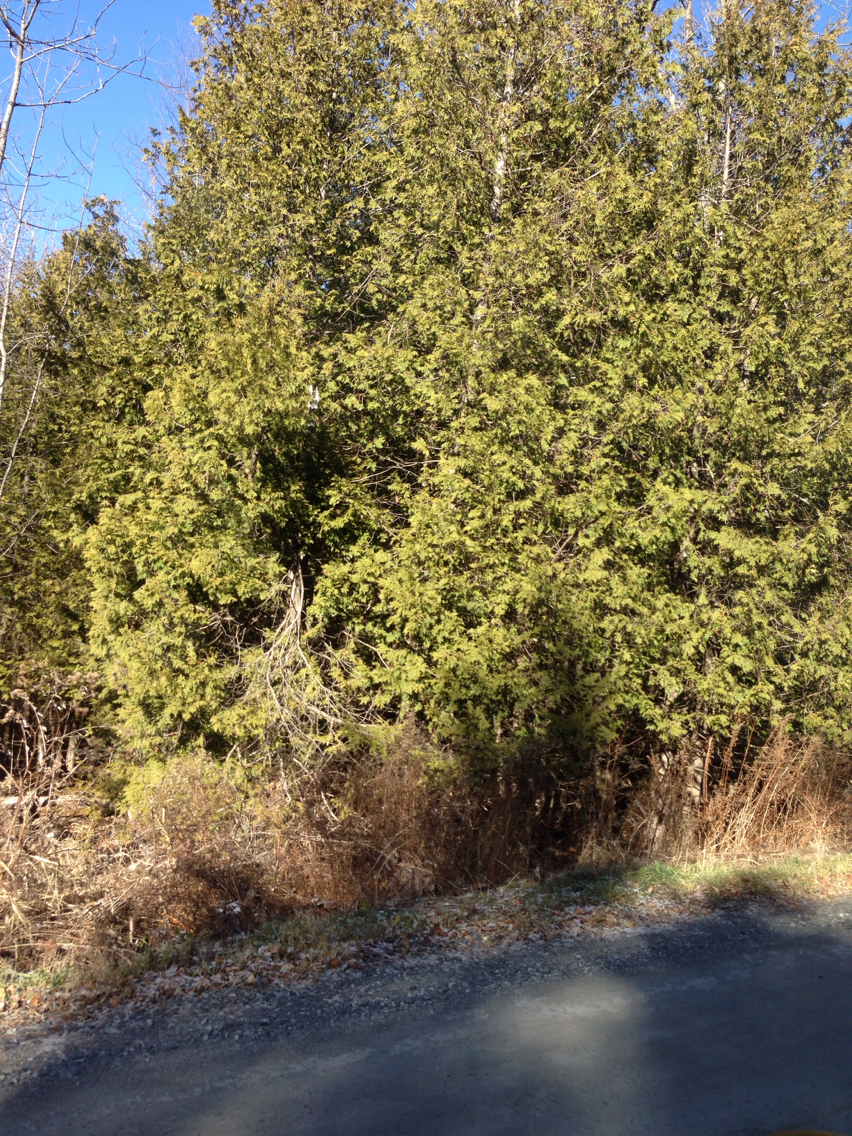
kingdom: Plantae
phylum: Tracheophyta
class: Pinopsida
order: Pinales
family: Cupressaceae
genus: Thuja
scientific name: Thuja occidentalis
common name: Northern white-cedar
